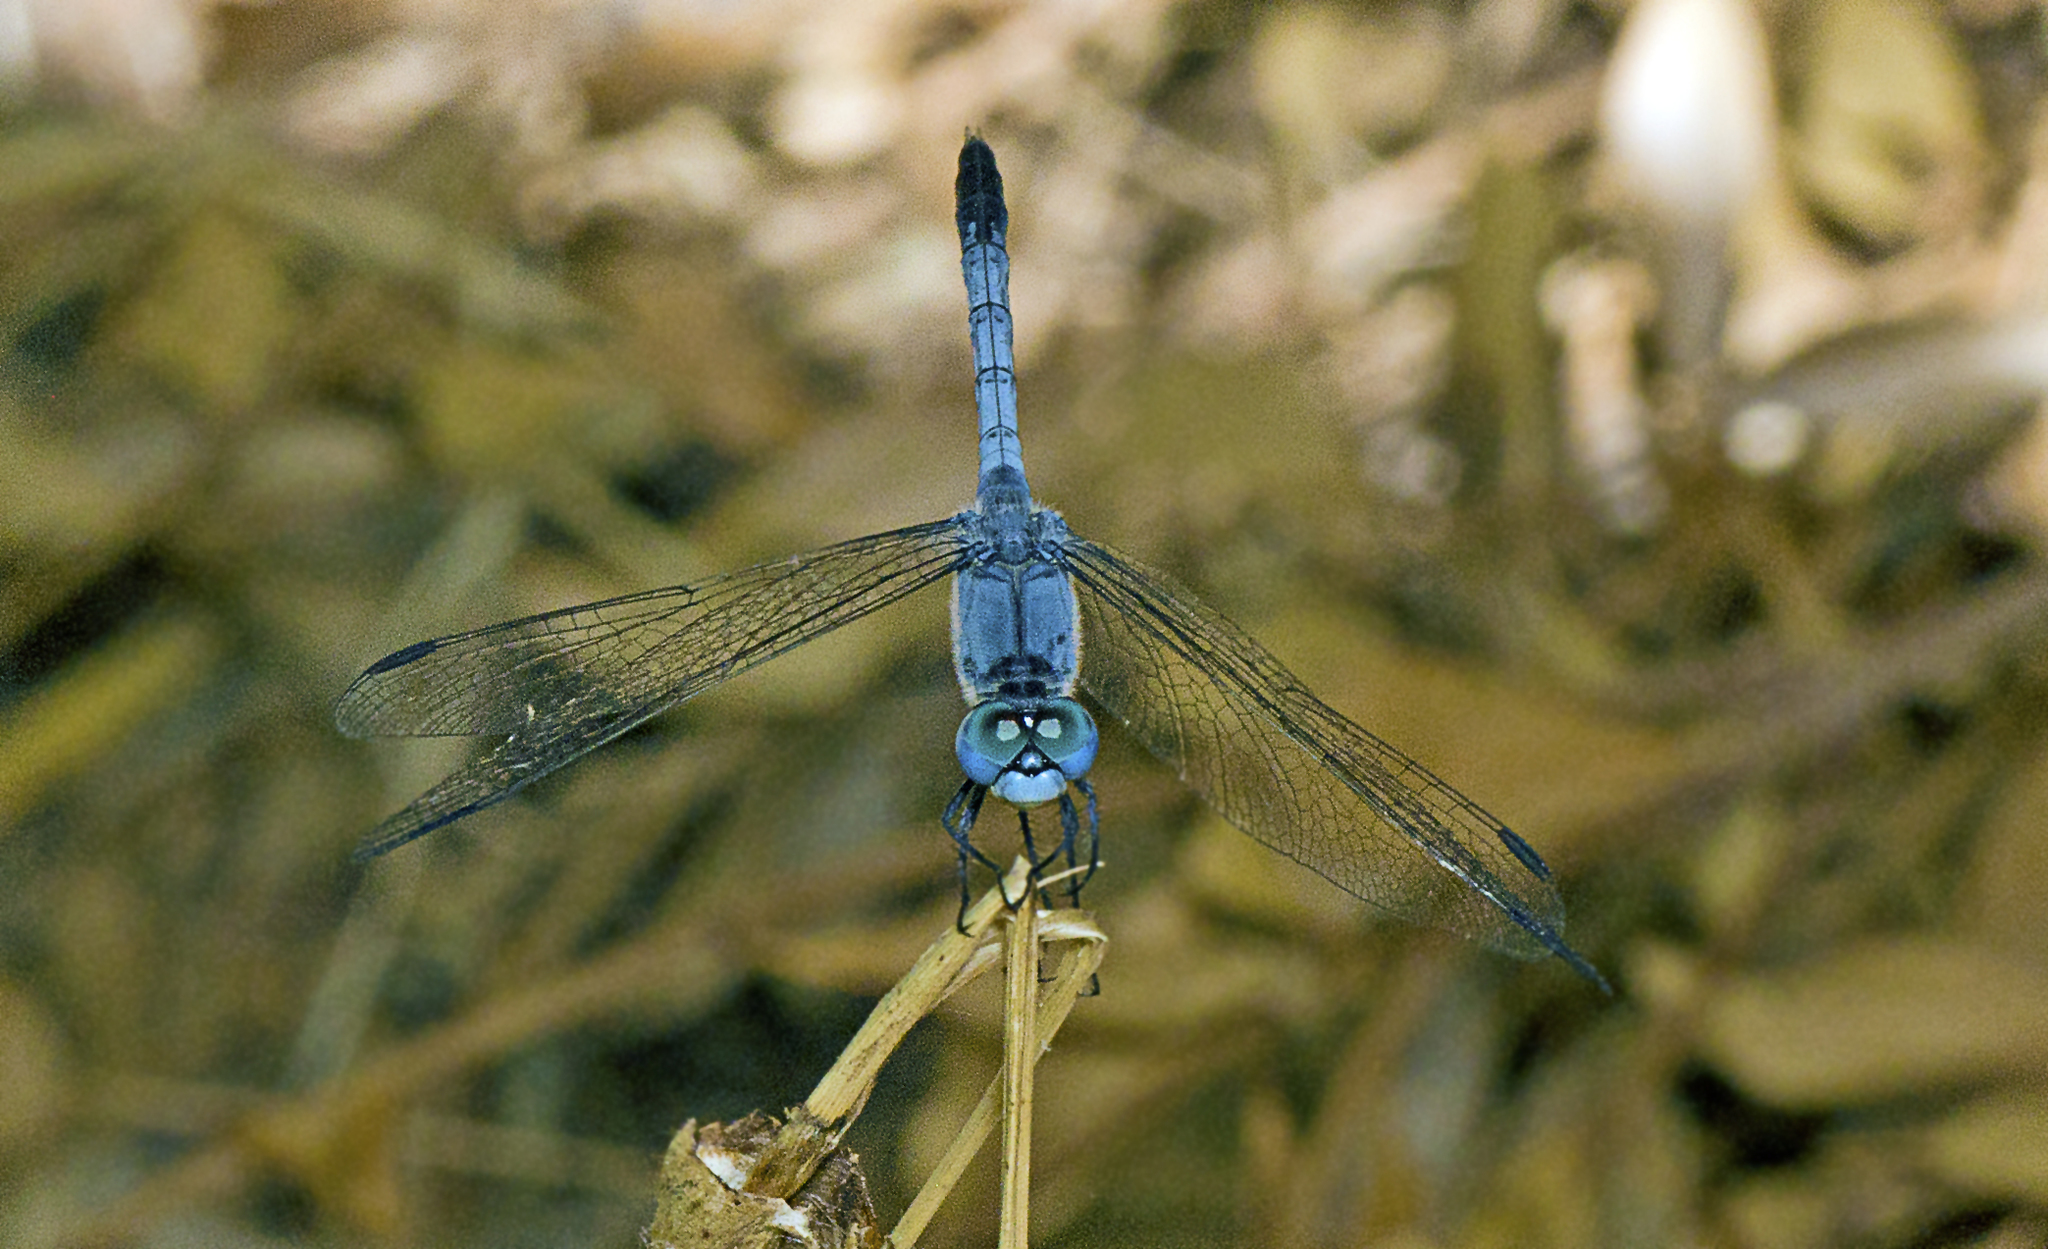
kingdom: Animalia
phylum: Arthropoda
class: Insecta
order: Odonata
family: Libellulidae
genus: Diplacodes
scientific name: Diplacodes trivialis
